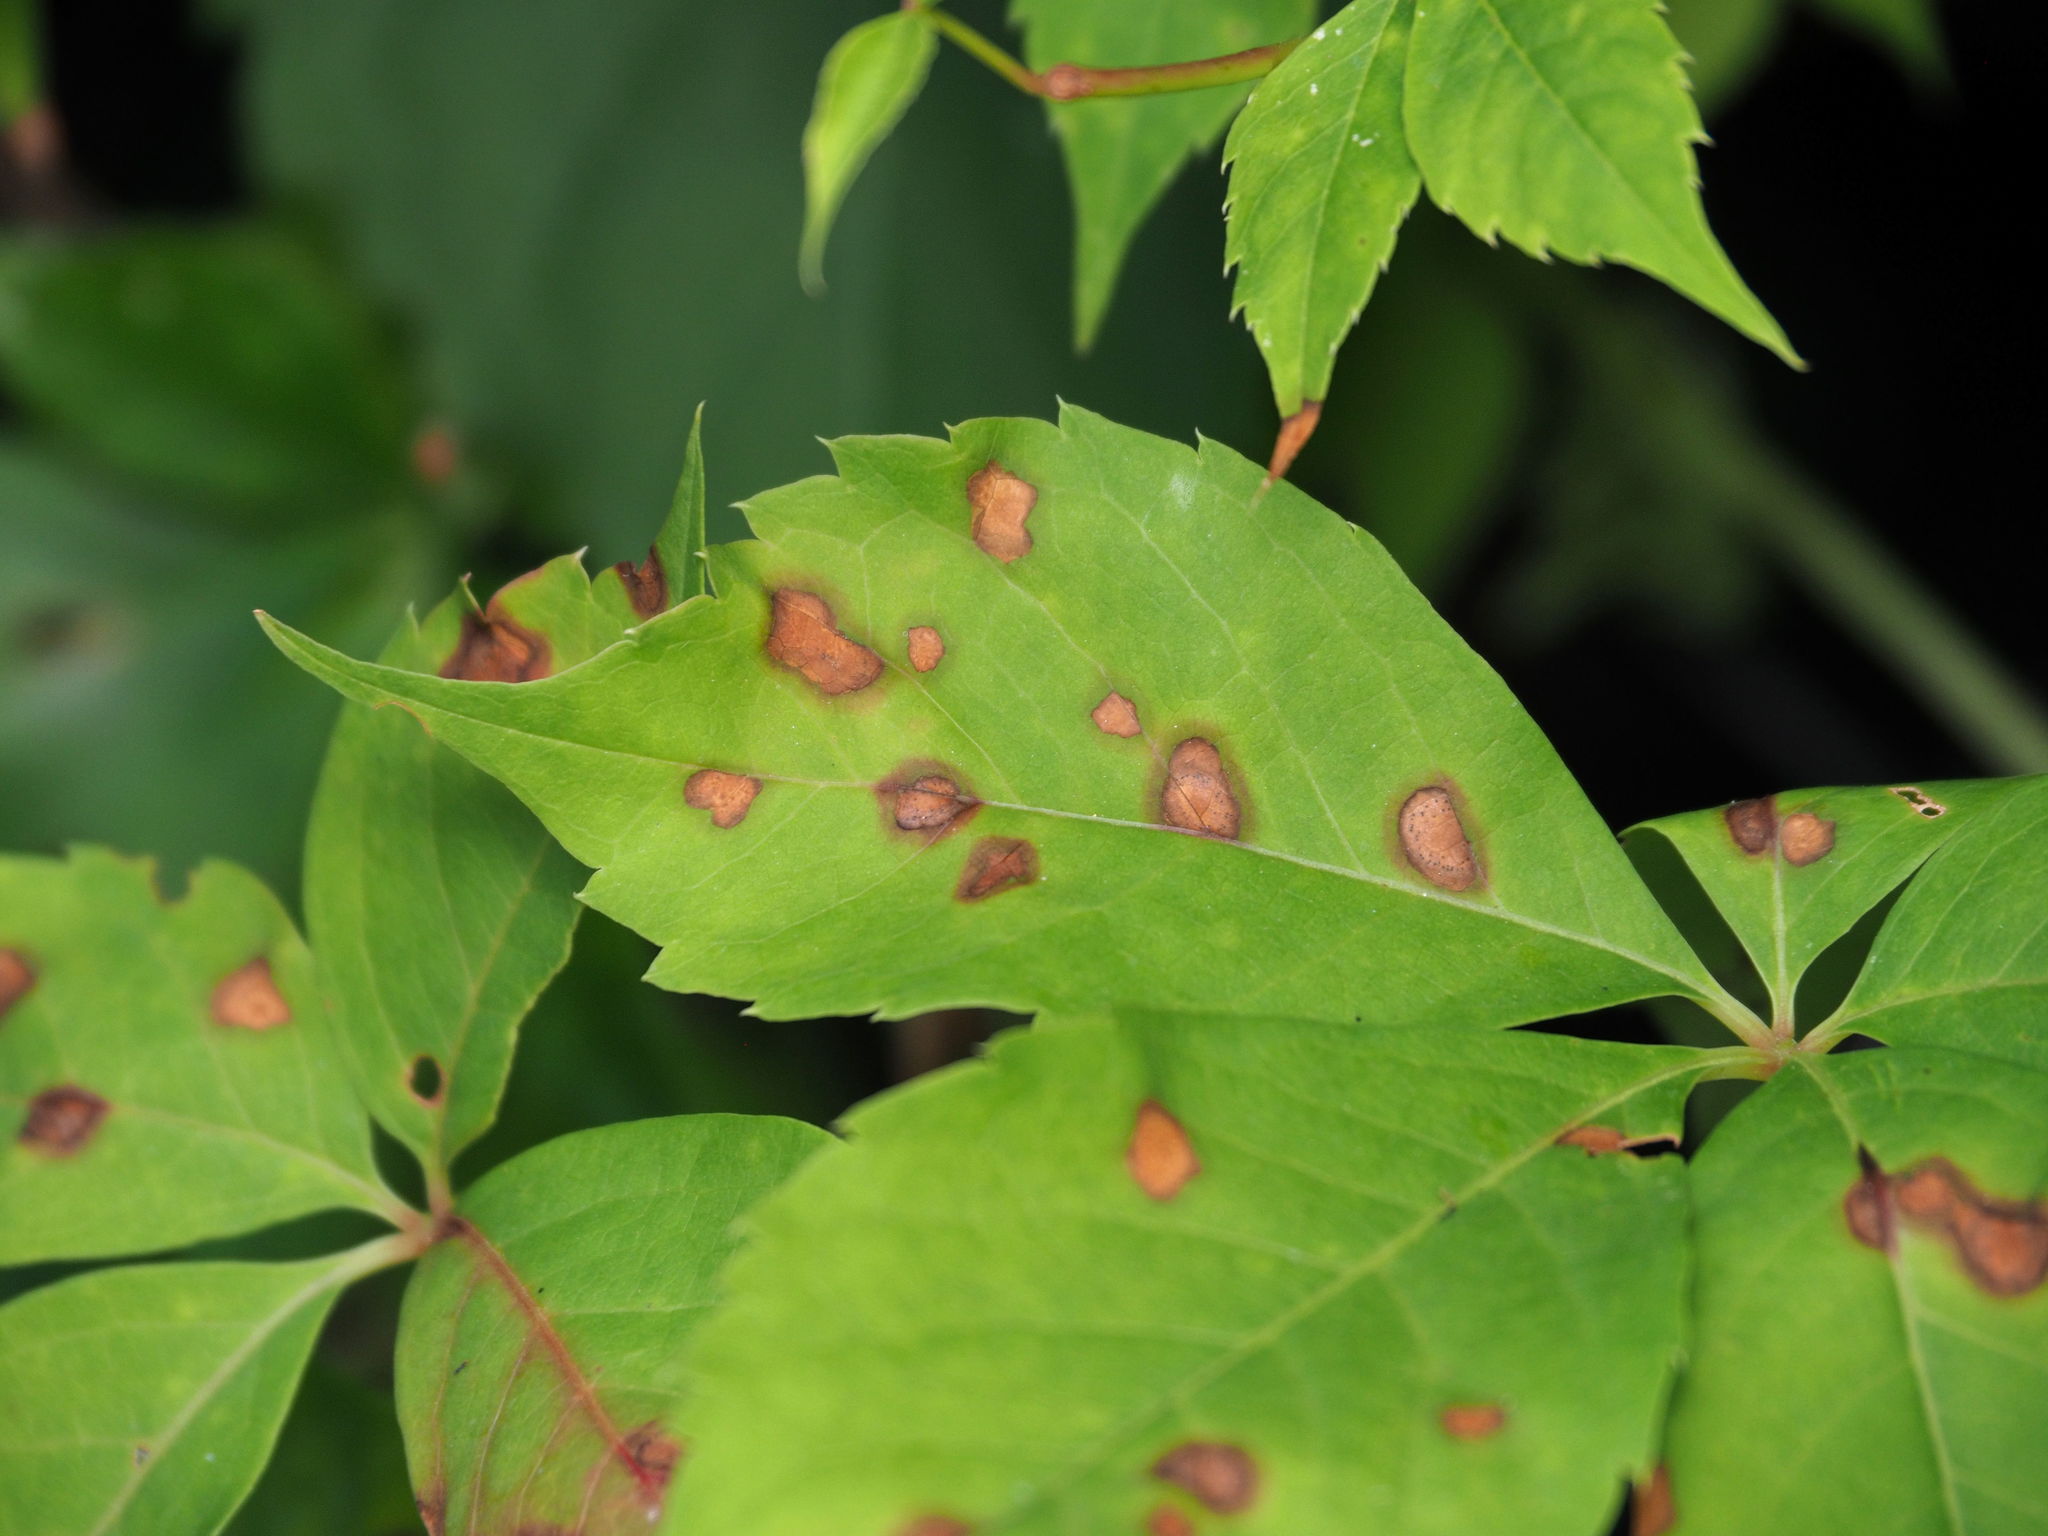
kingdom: Fungi
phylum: Ascomycota
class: Dothideomycetes
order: Botryosphaeriales
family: Phyllostictaceae
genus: Phyllosticta
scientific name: Phyllosticta parthenocissi
